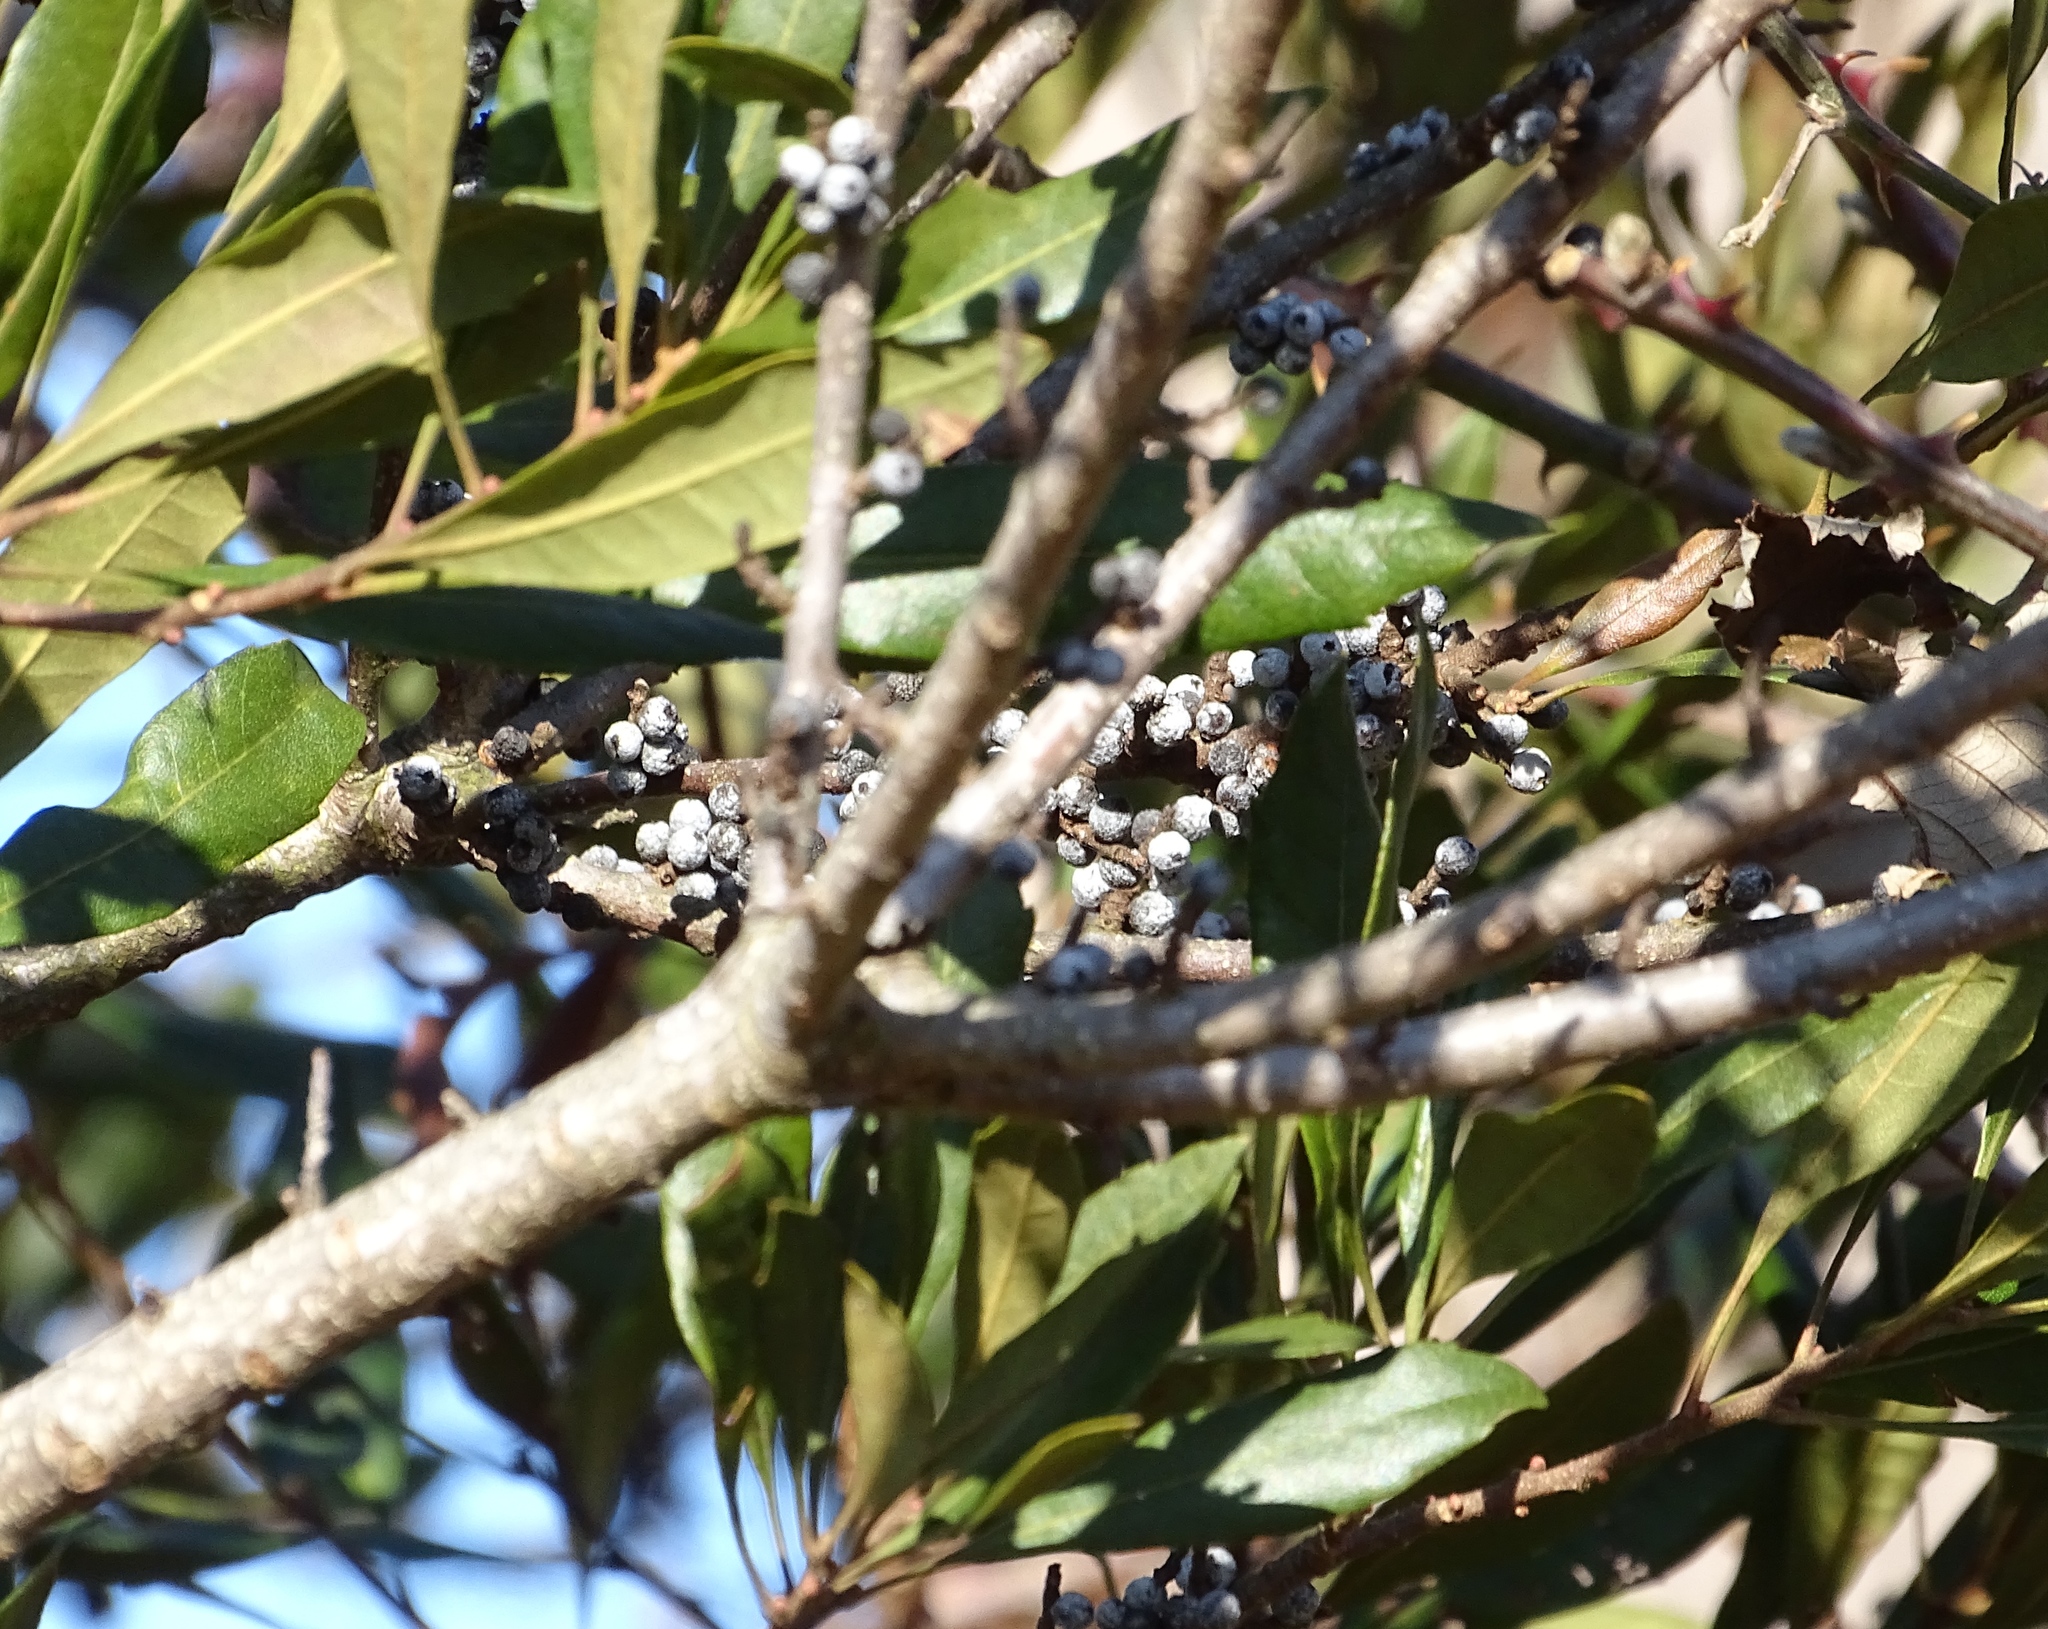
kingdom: Plantae
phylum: Tracheophyta
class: Magnoliopsida
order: Fagales
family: Myricaceae
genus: Morella
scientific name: Morella cerifera
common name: Wax myrtle
